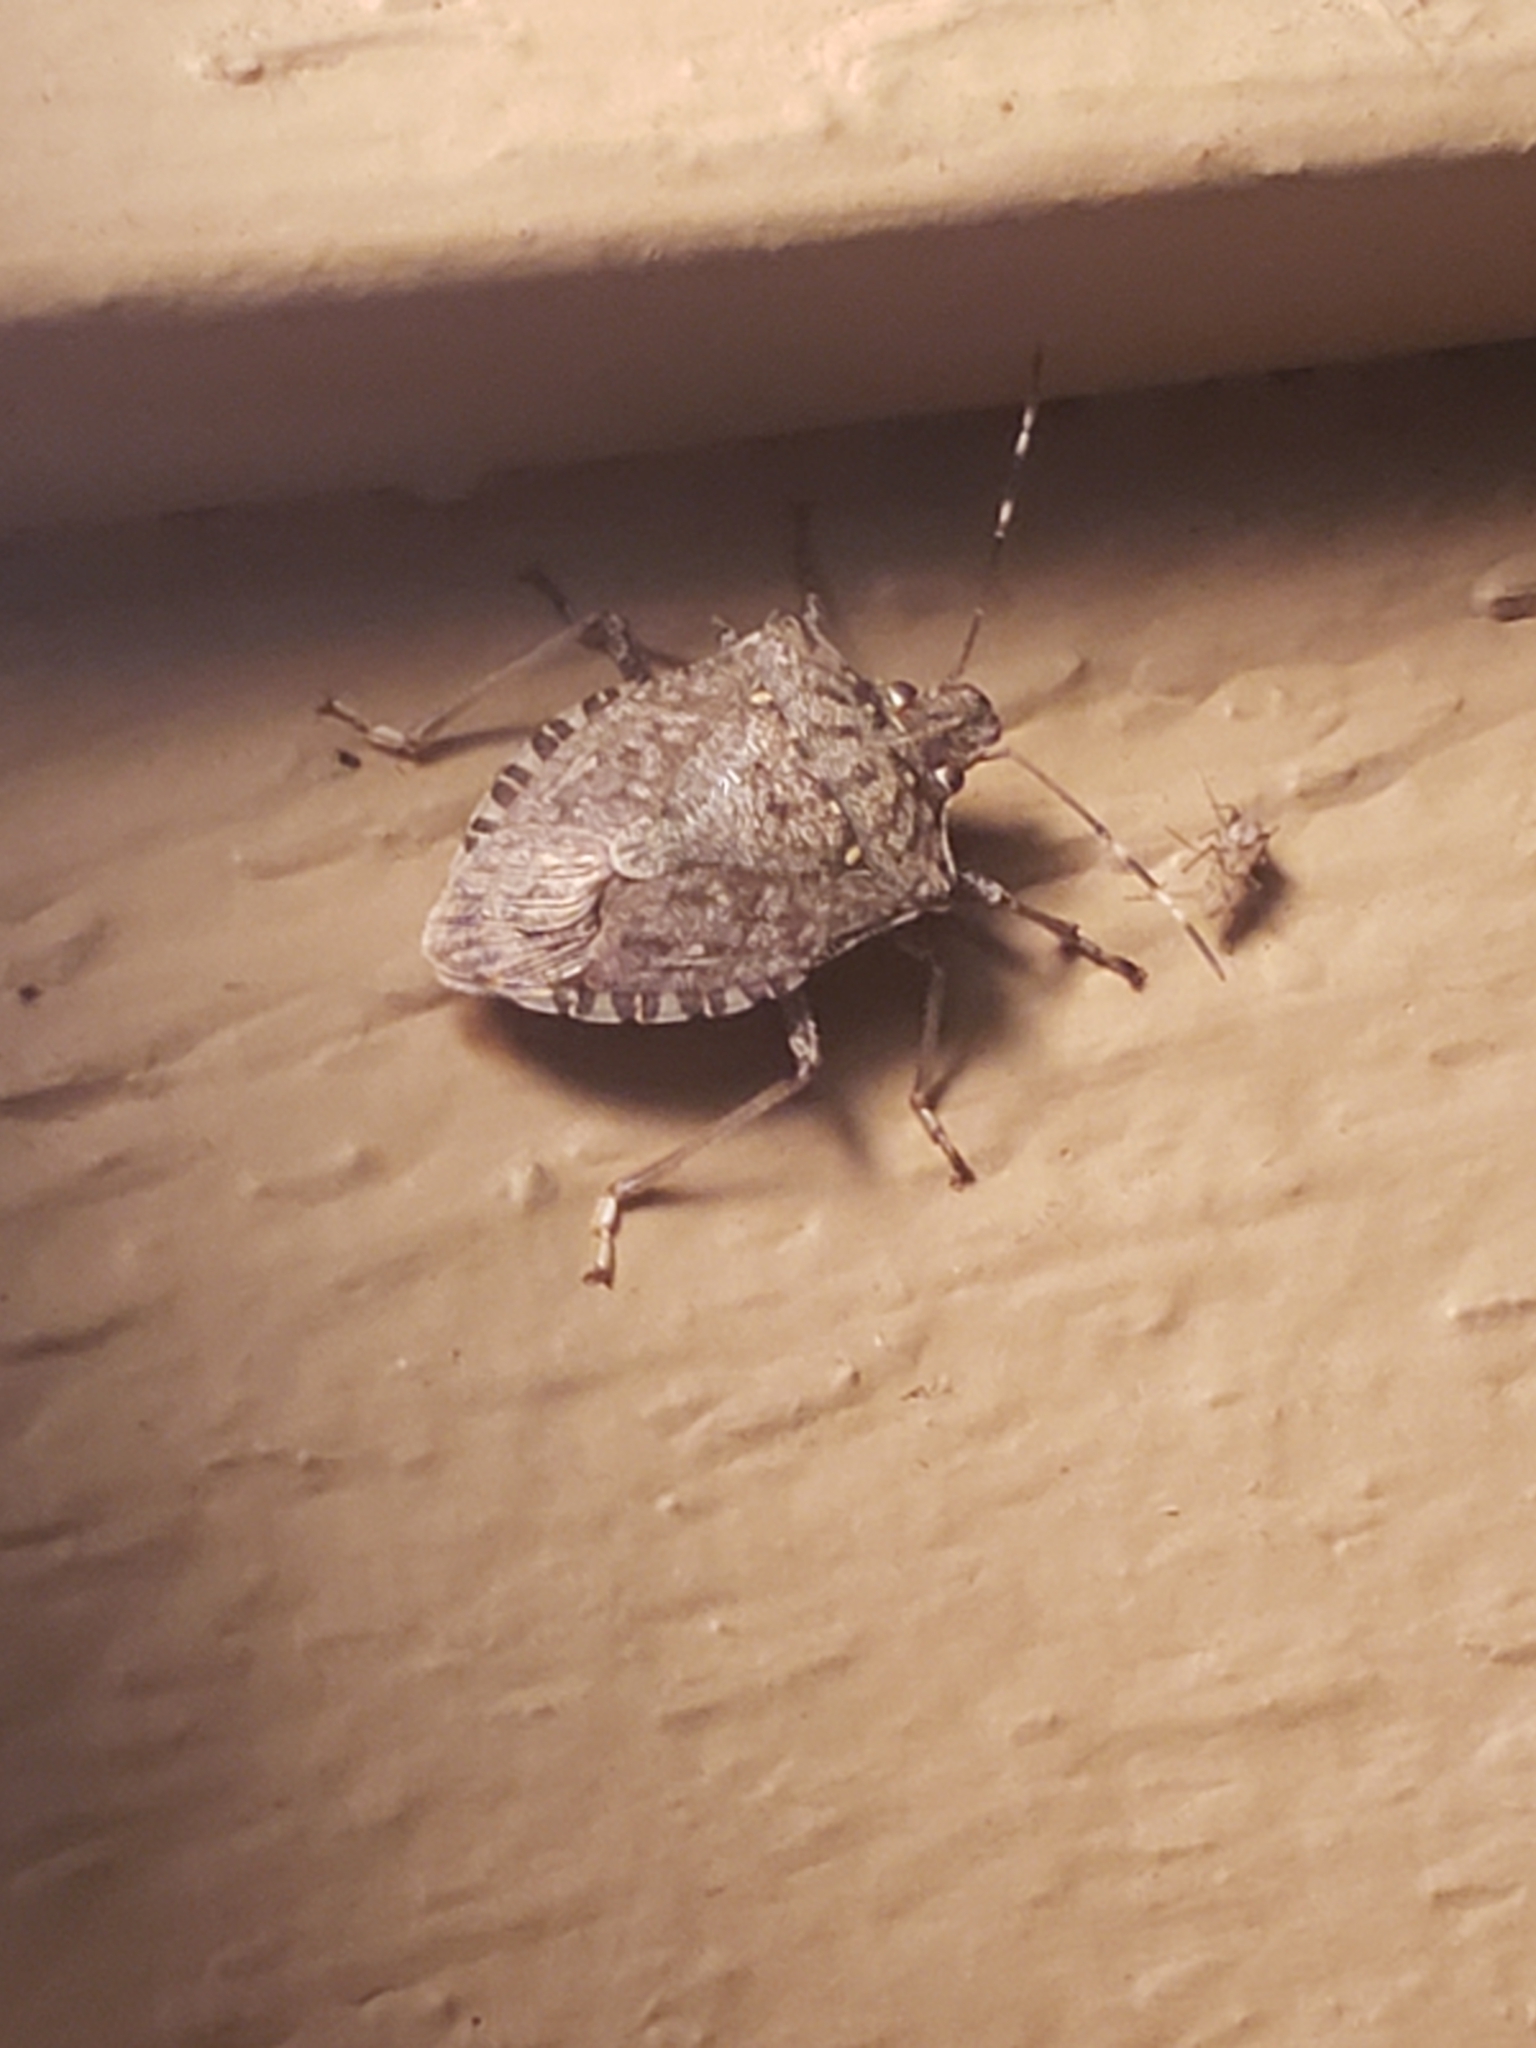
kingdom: Animalia
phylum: Arthropoda
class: Insecta
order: Hemiptera
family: Pentatomidae
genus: Halyomorpha
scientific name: Halyomorpha halys
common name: Brown marmorated stink bug
